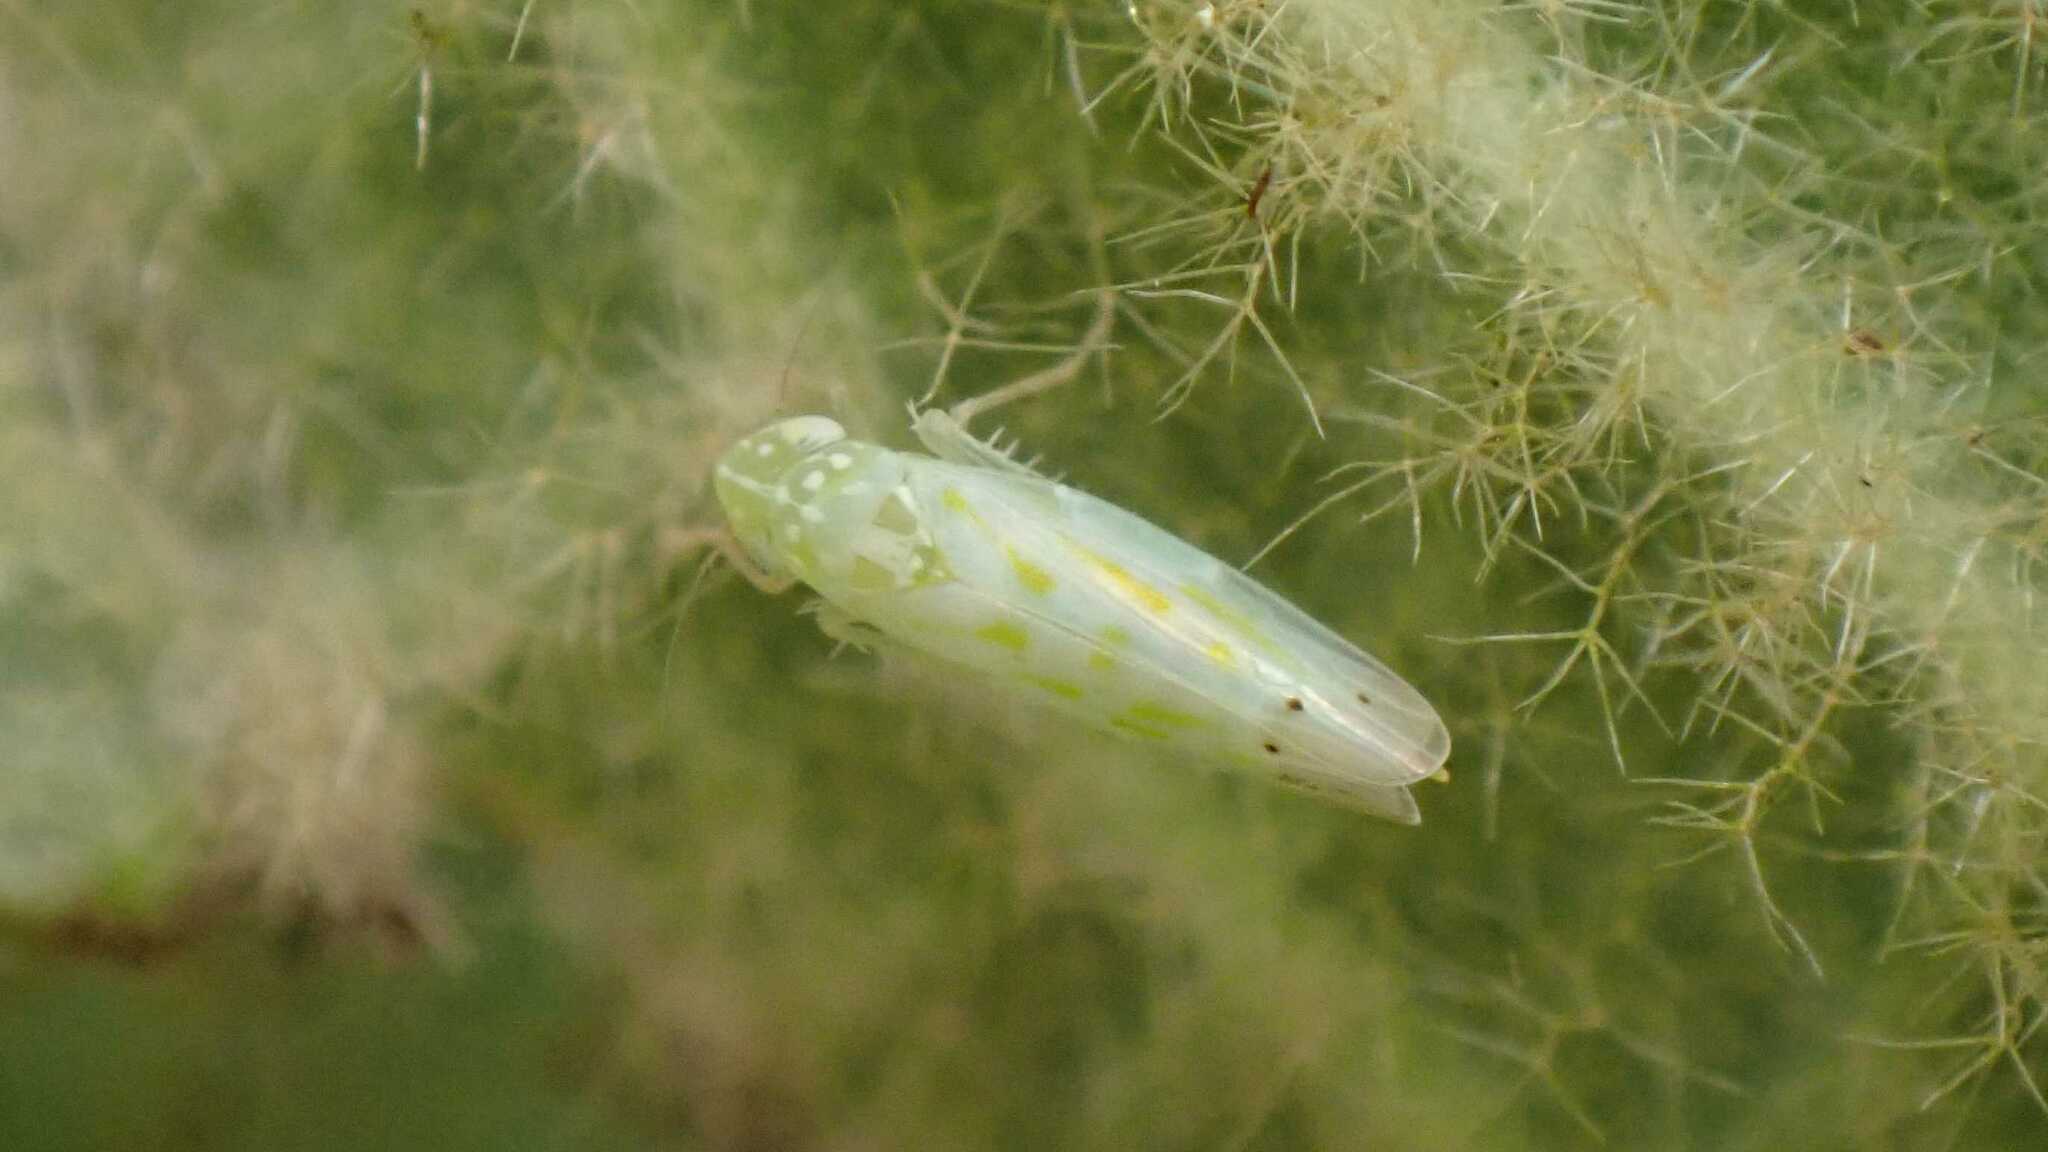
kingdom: Animalia
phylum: Arthropoda
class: Insecta
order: Hemiptera
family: Cicadellidae
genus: Micantulina
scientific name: Micantulina stigmatipennis
